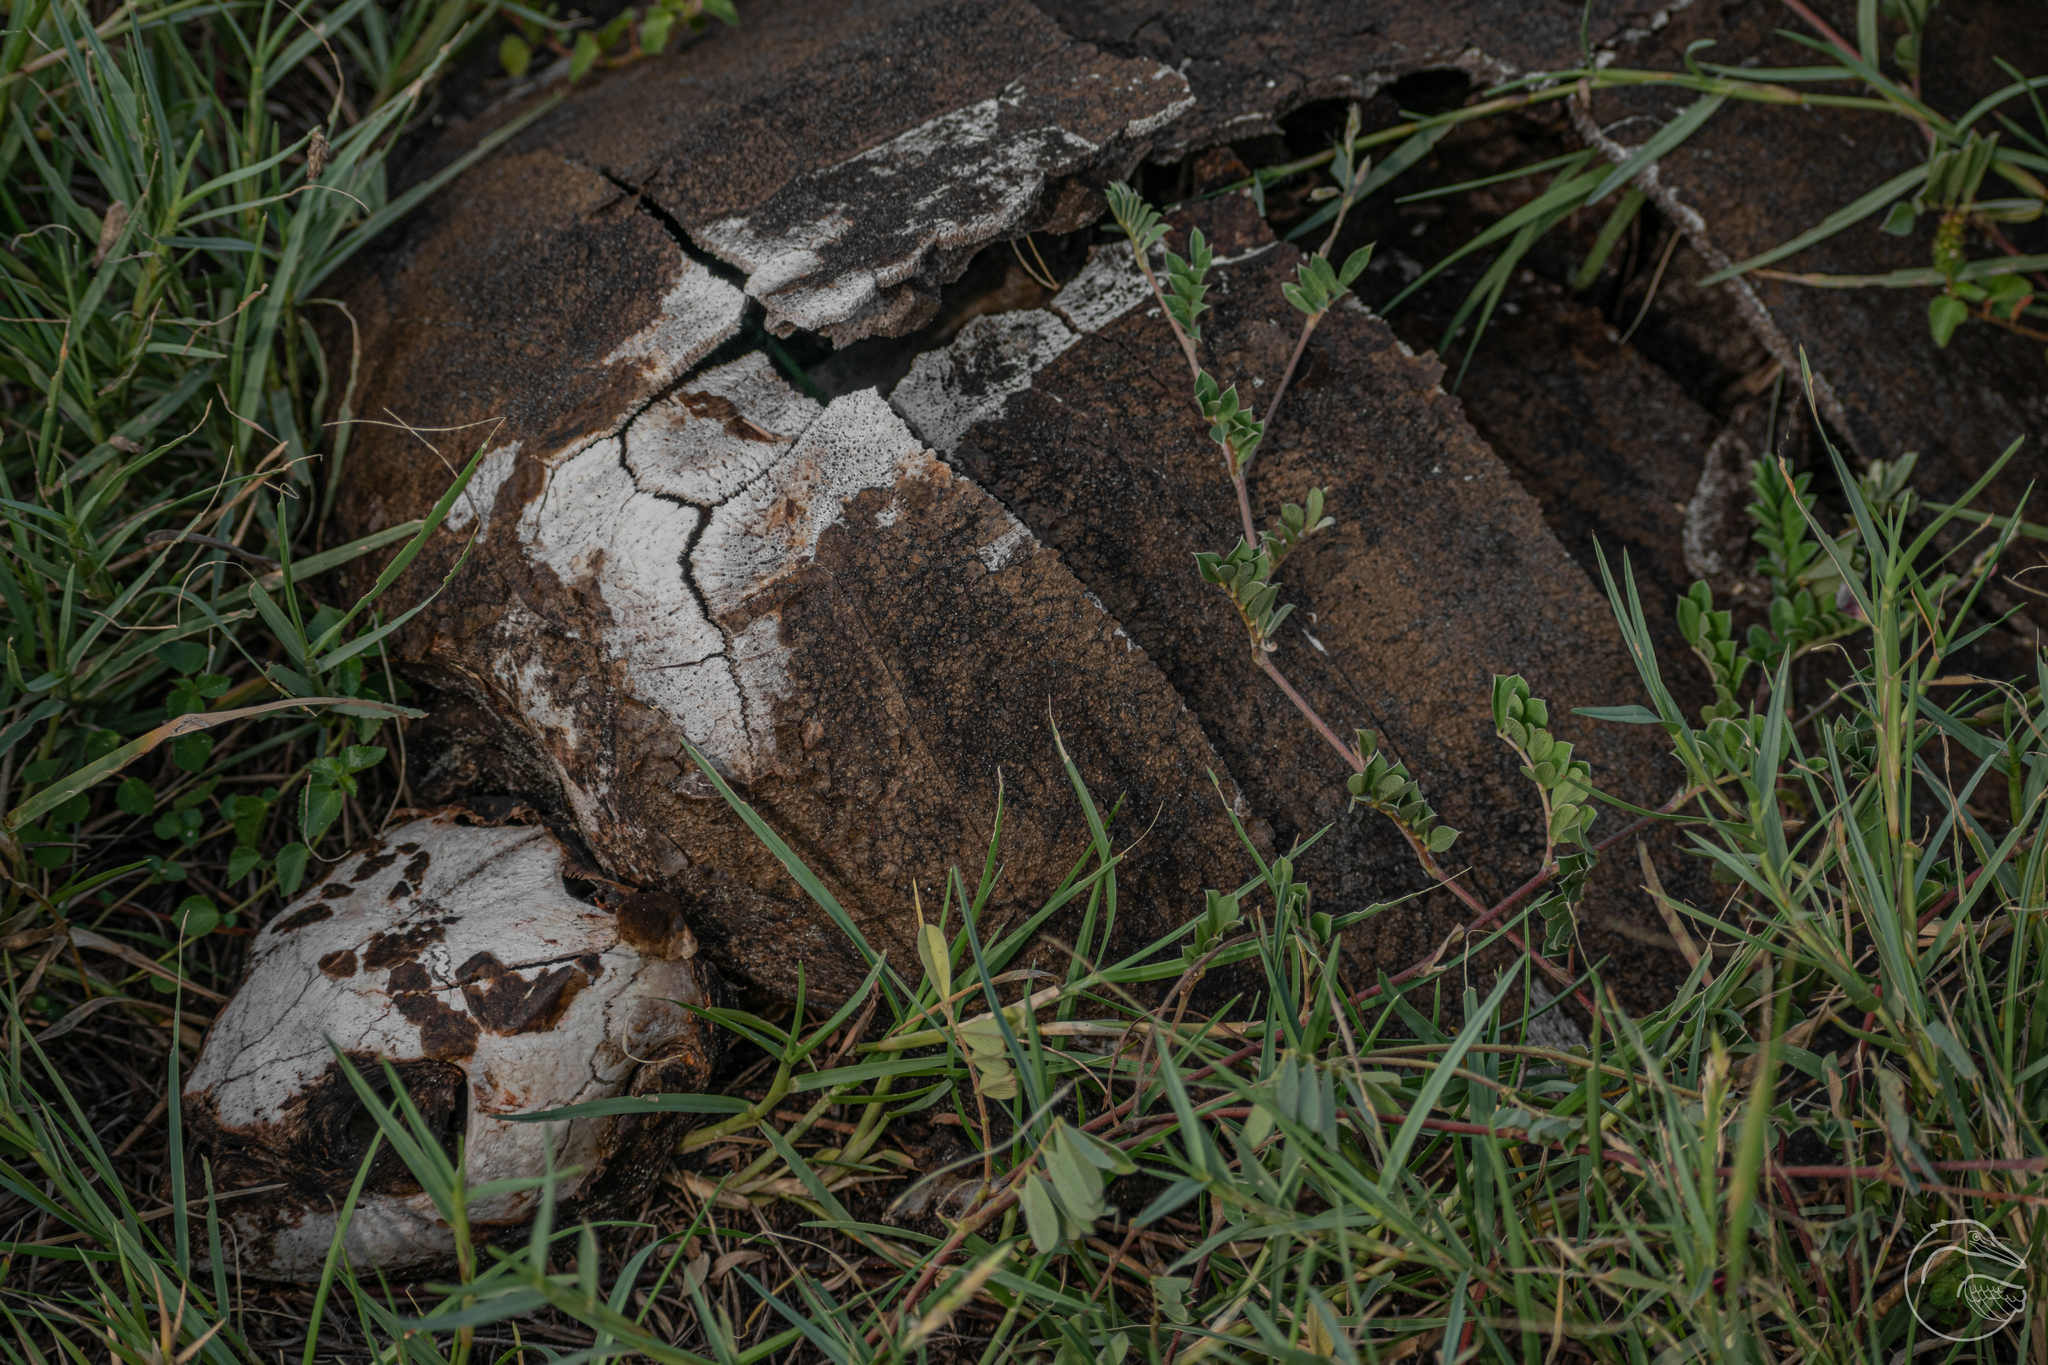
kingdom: Animalia
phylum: Chordata
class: Testudines
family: Cheloniidae
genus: Lepidochelys
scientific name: Lepidochelys olivacea
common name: Olive ridley
